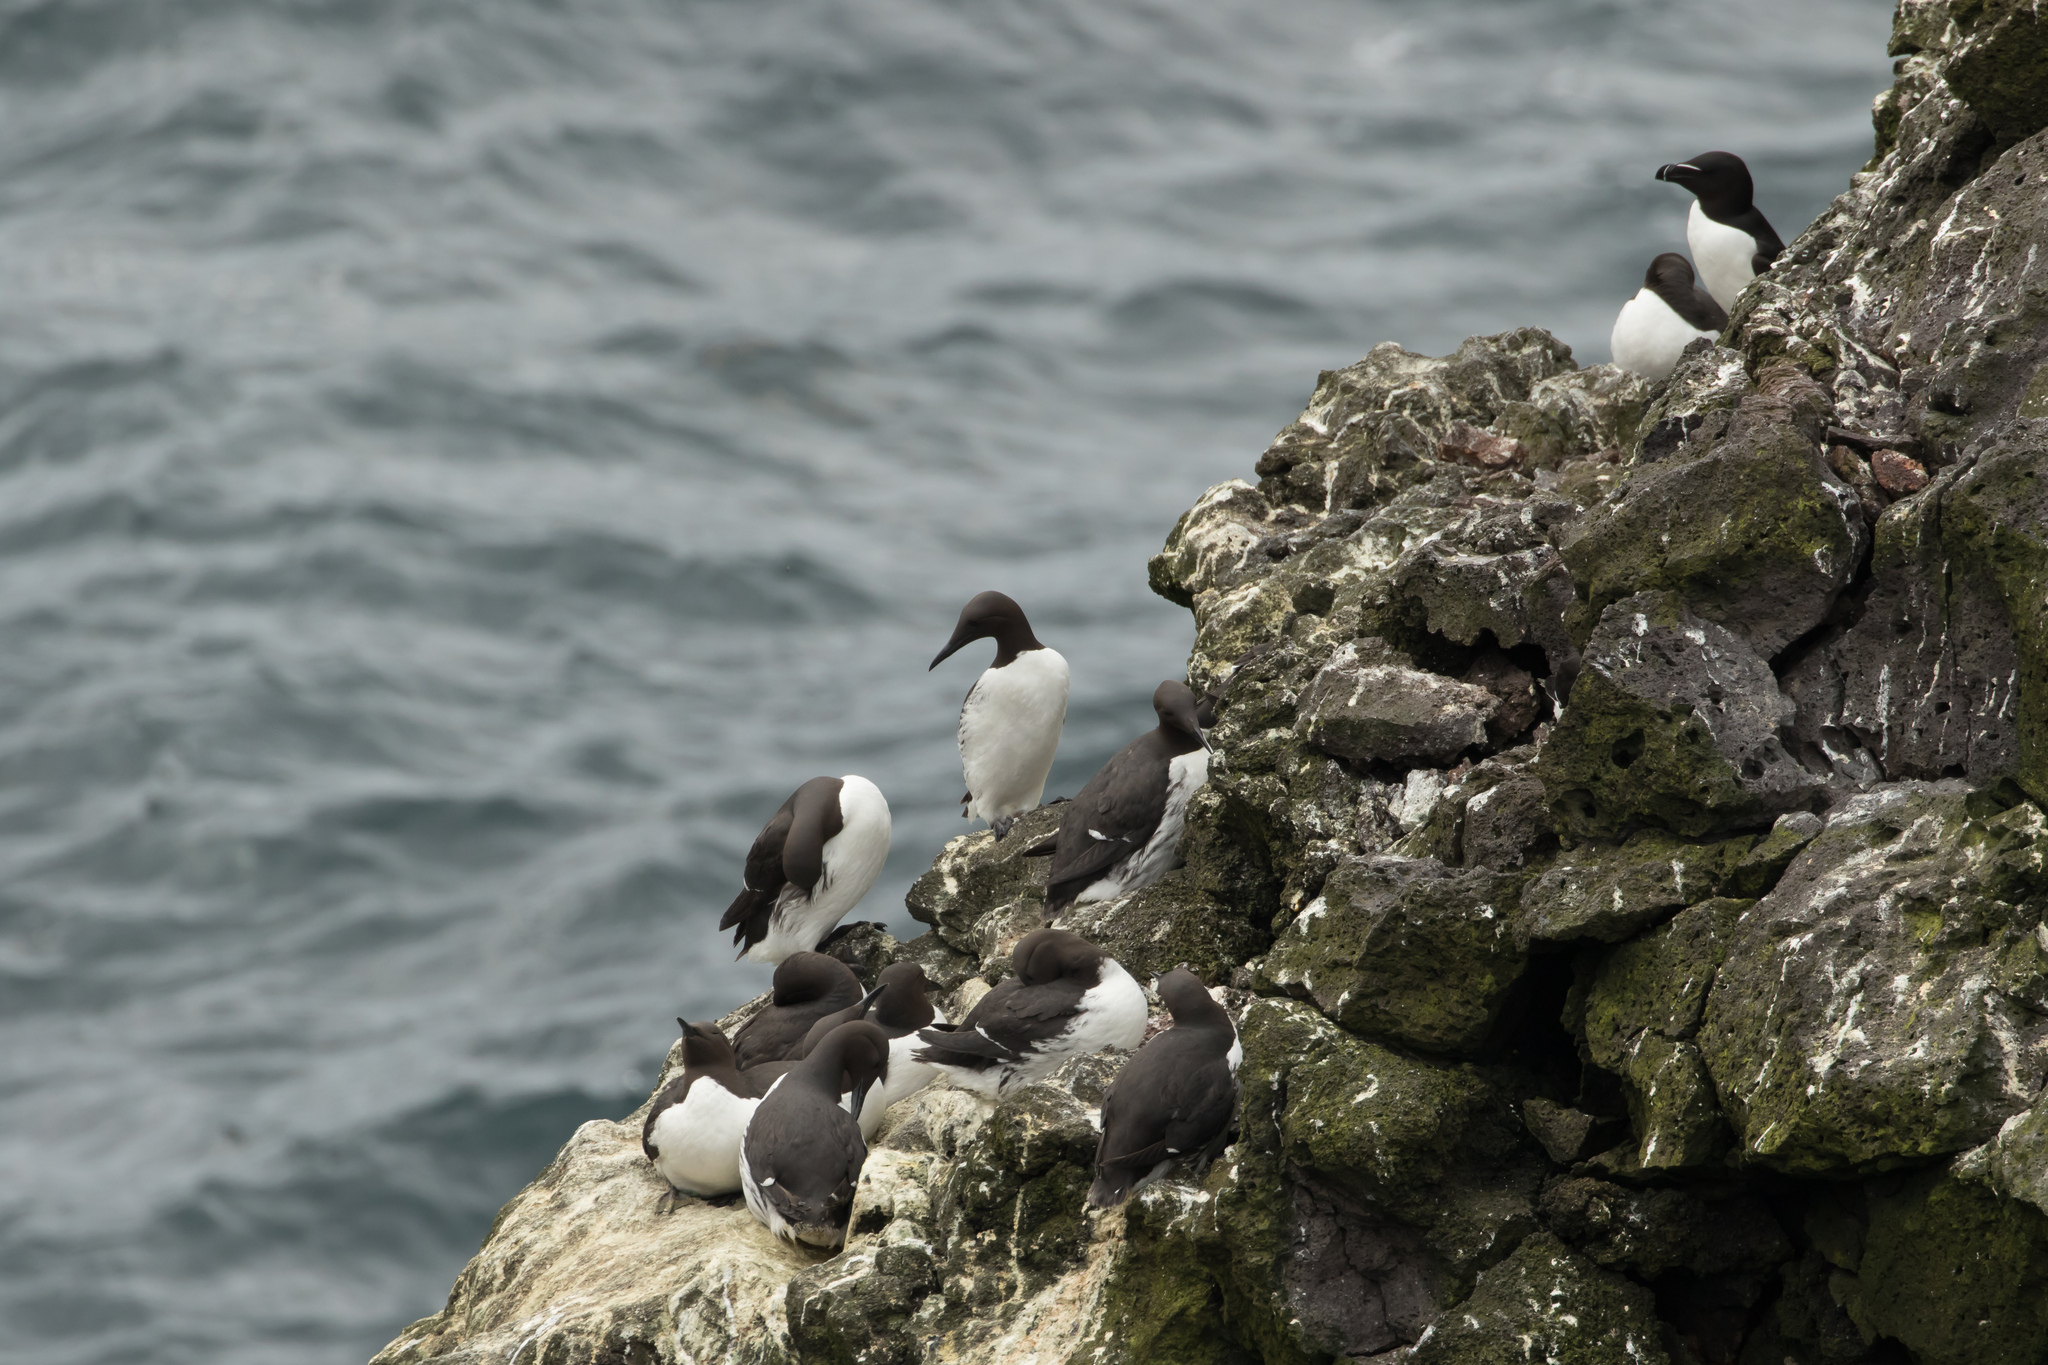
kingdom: Animalia
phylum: Chordata
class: Aves
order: Charadriiformes
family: Alcidae
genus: Uria
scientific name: Uria aalge
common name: Common murre
